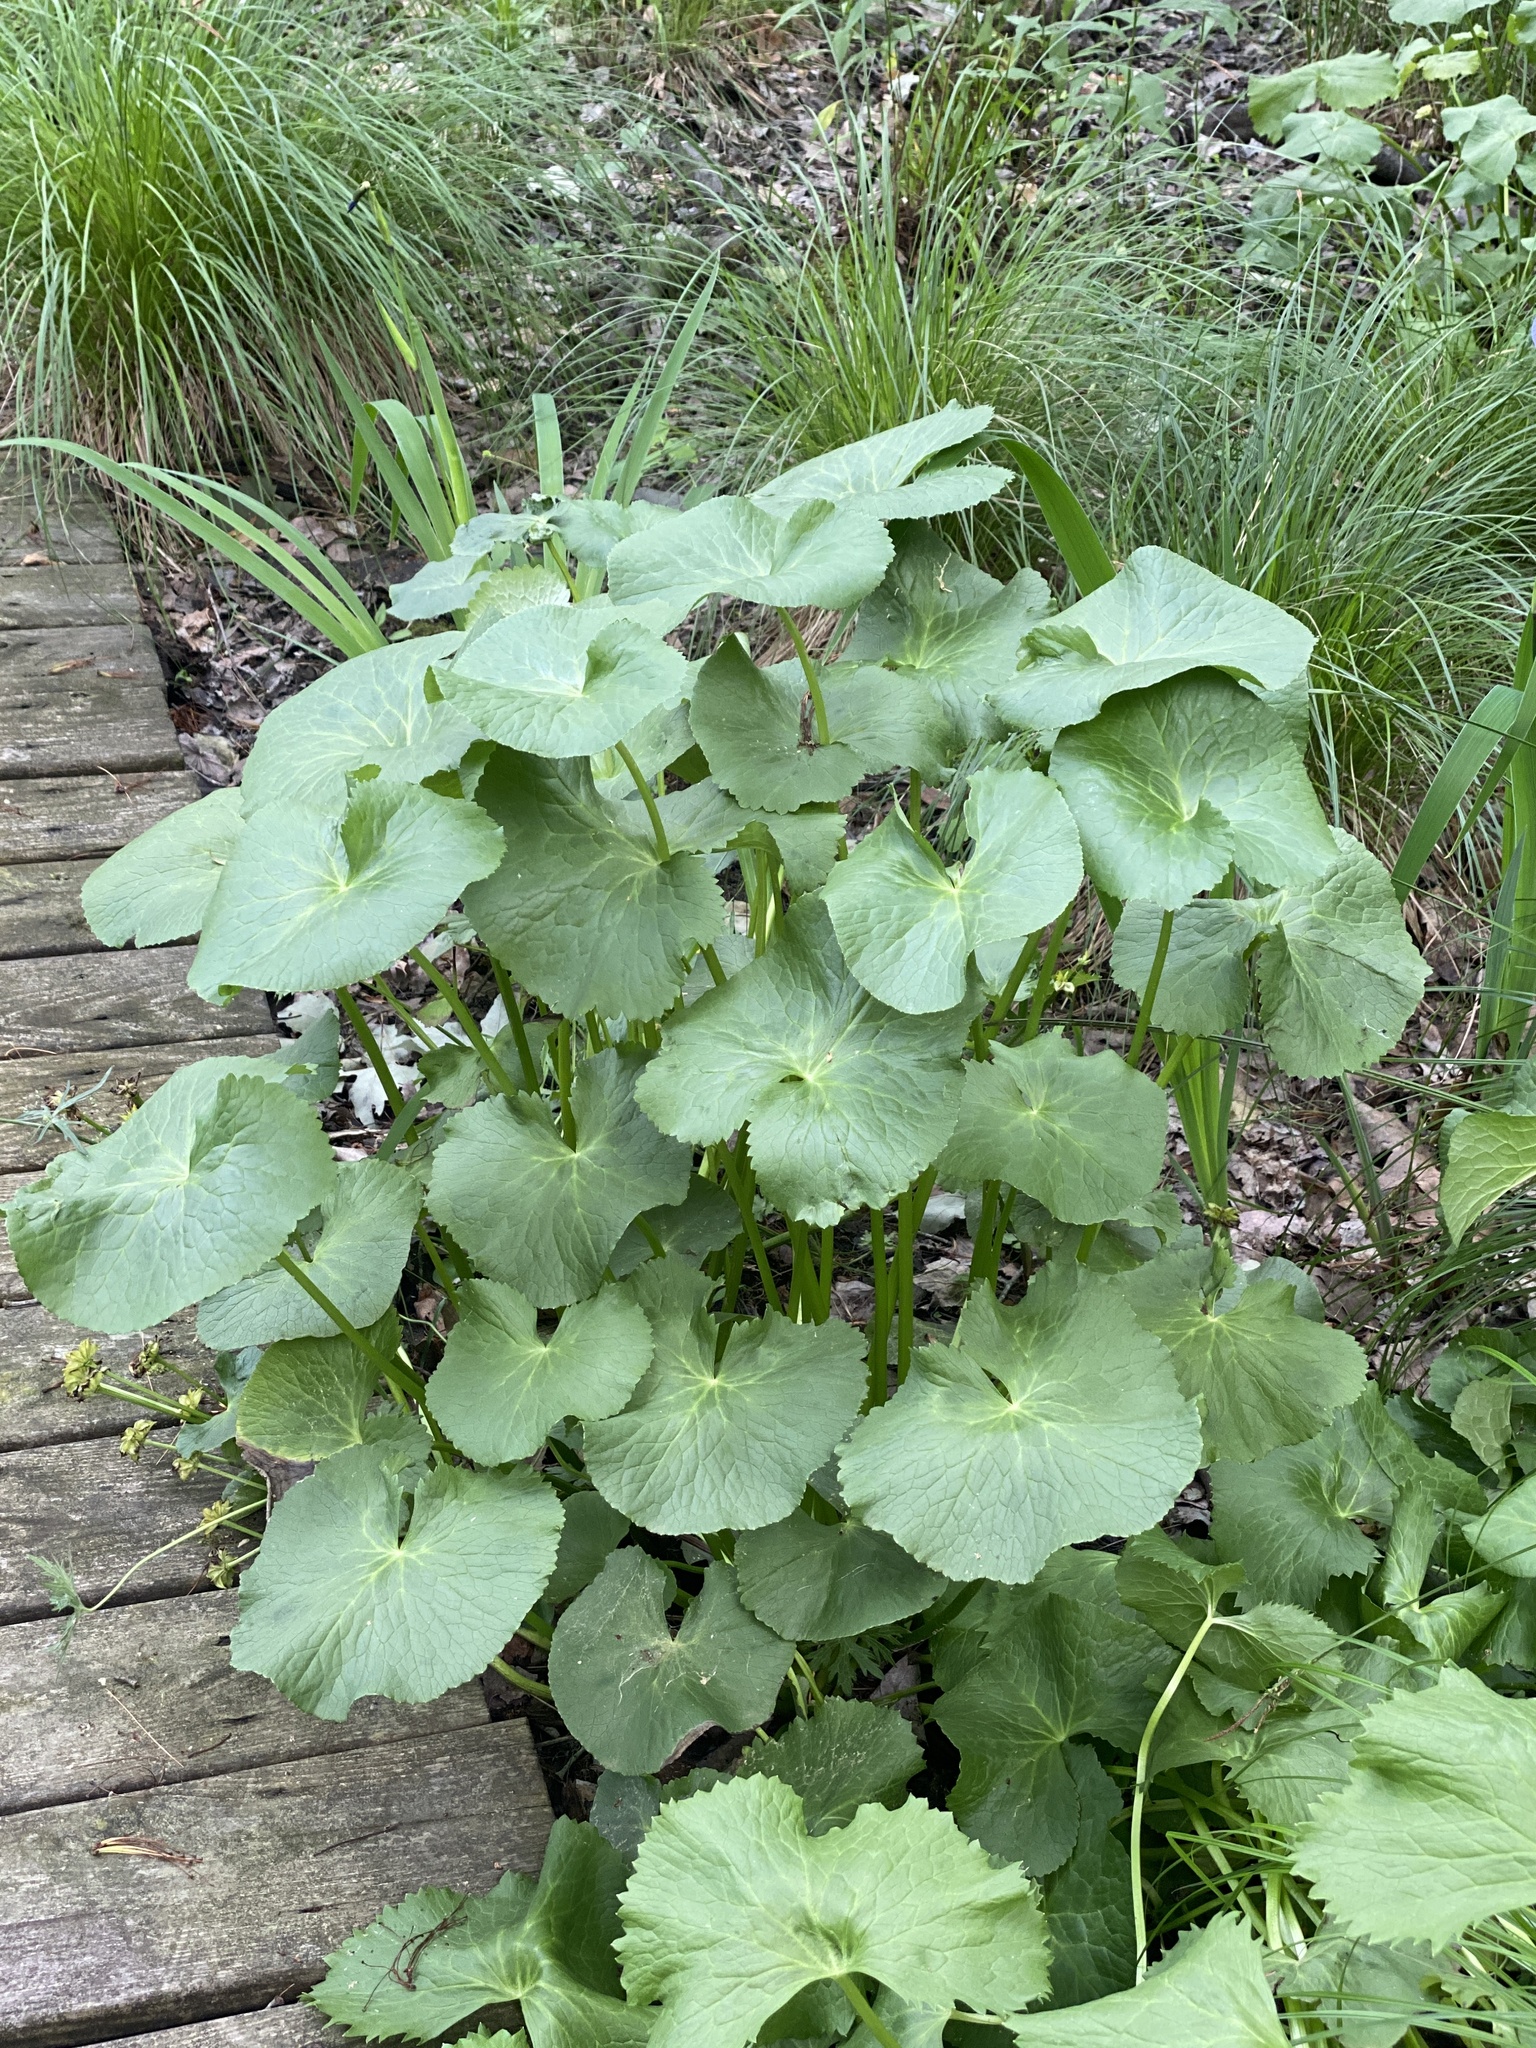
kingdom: Plantae
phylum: Tracheophyta
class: Magnoliopsida
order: Ranunculales
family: Ranunculaceae
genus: Caltha
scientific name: Caltha palustris
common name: Marsh marigold
